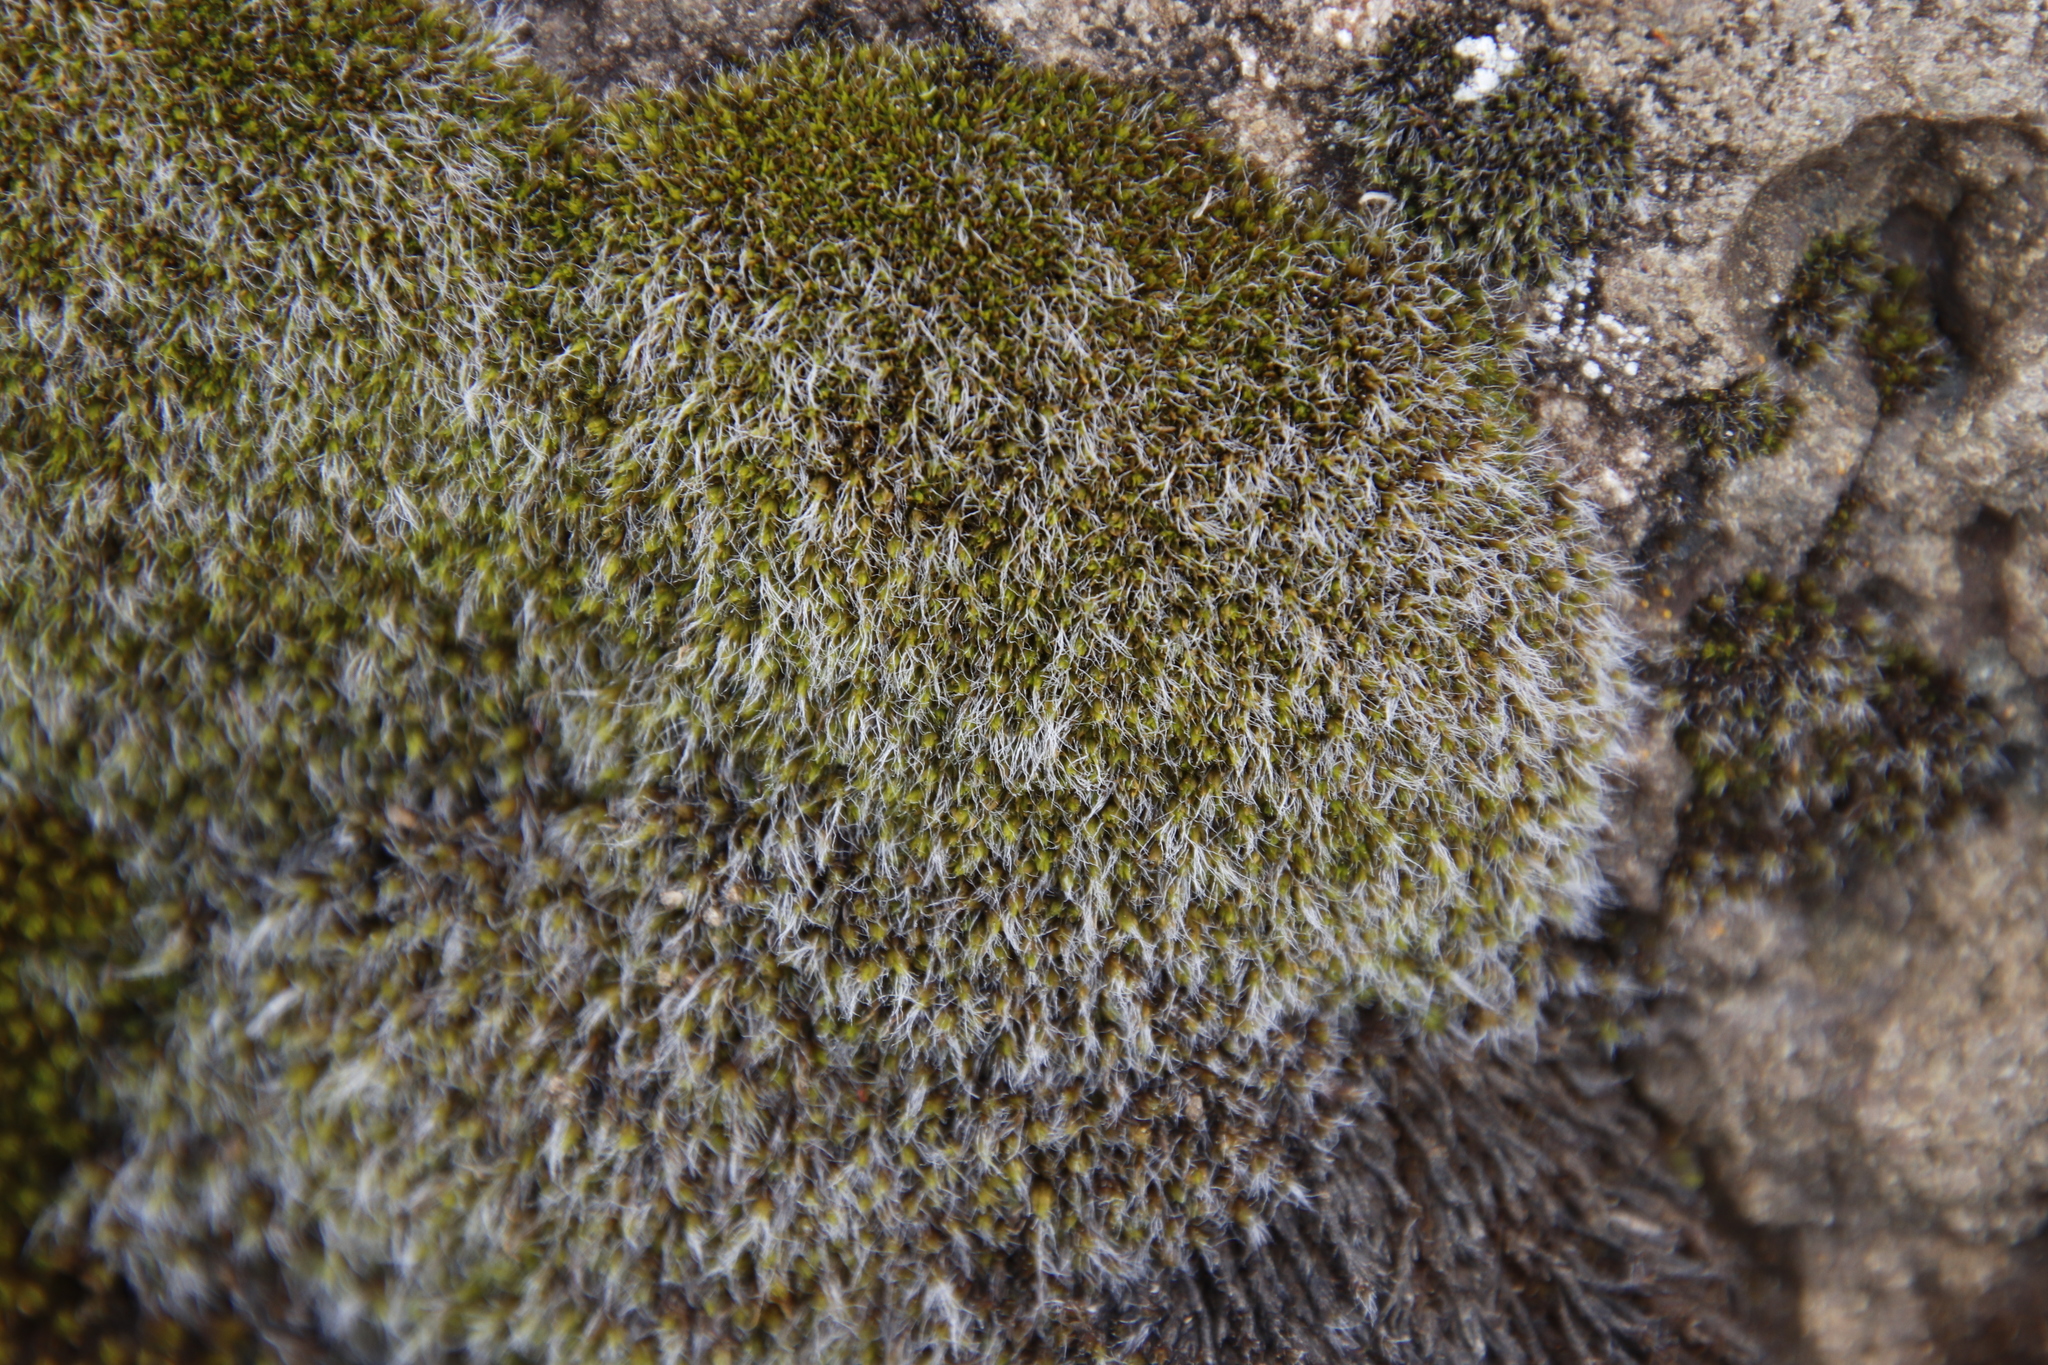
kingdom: Plantae
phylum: Bryophyta
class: Bryopsida
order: Grimmiales
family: Grimmiaceae
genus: Grimmia
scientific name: Grimmia fuscolutea
